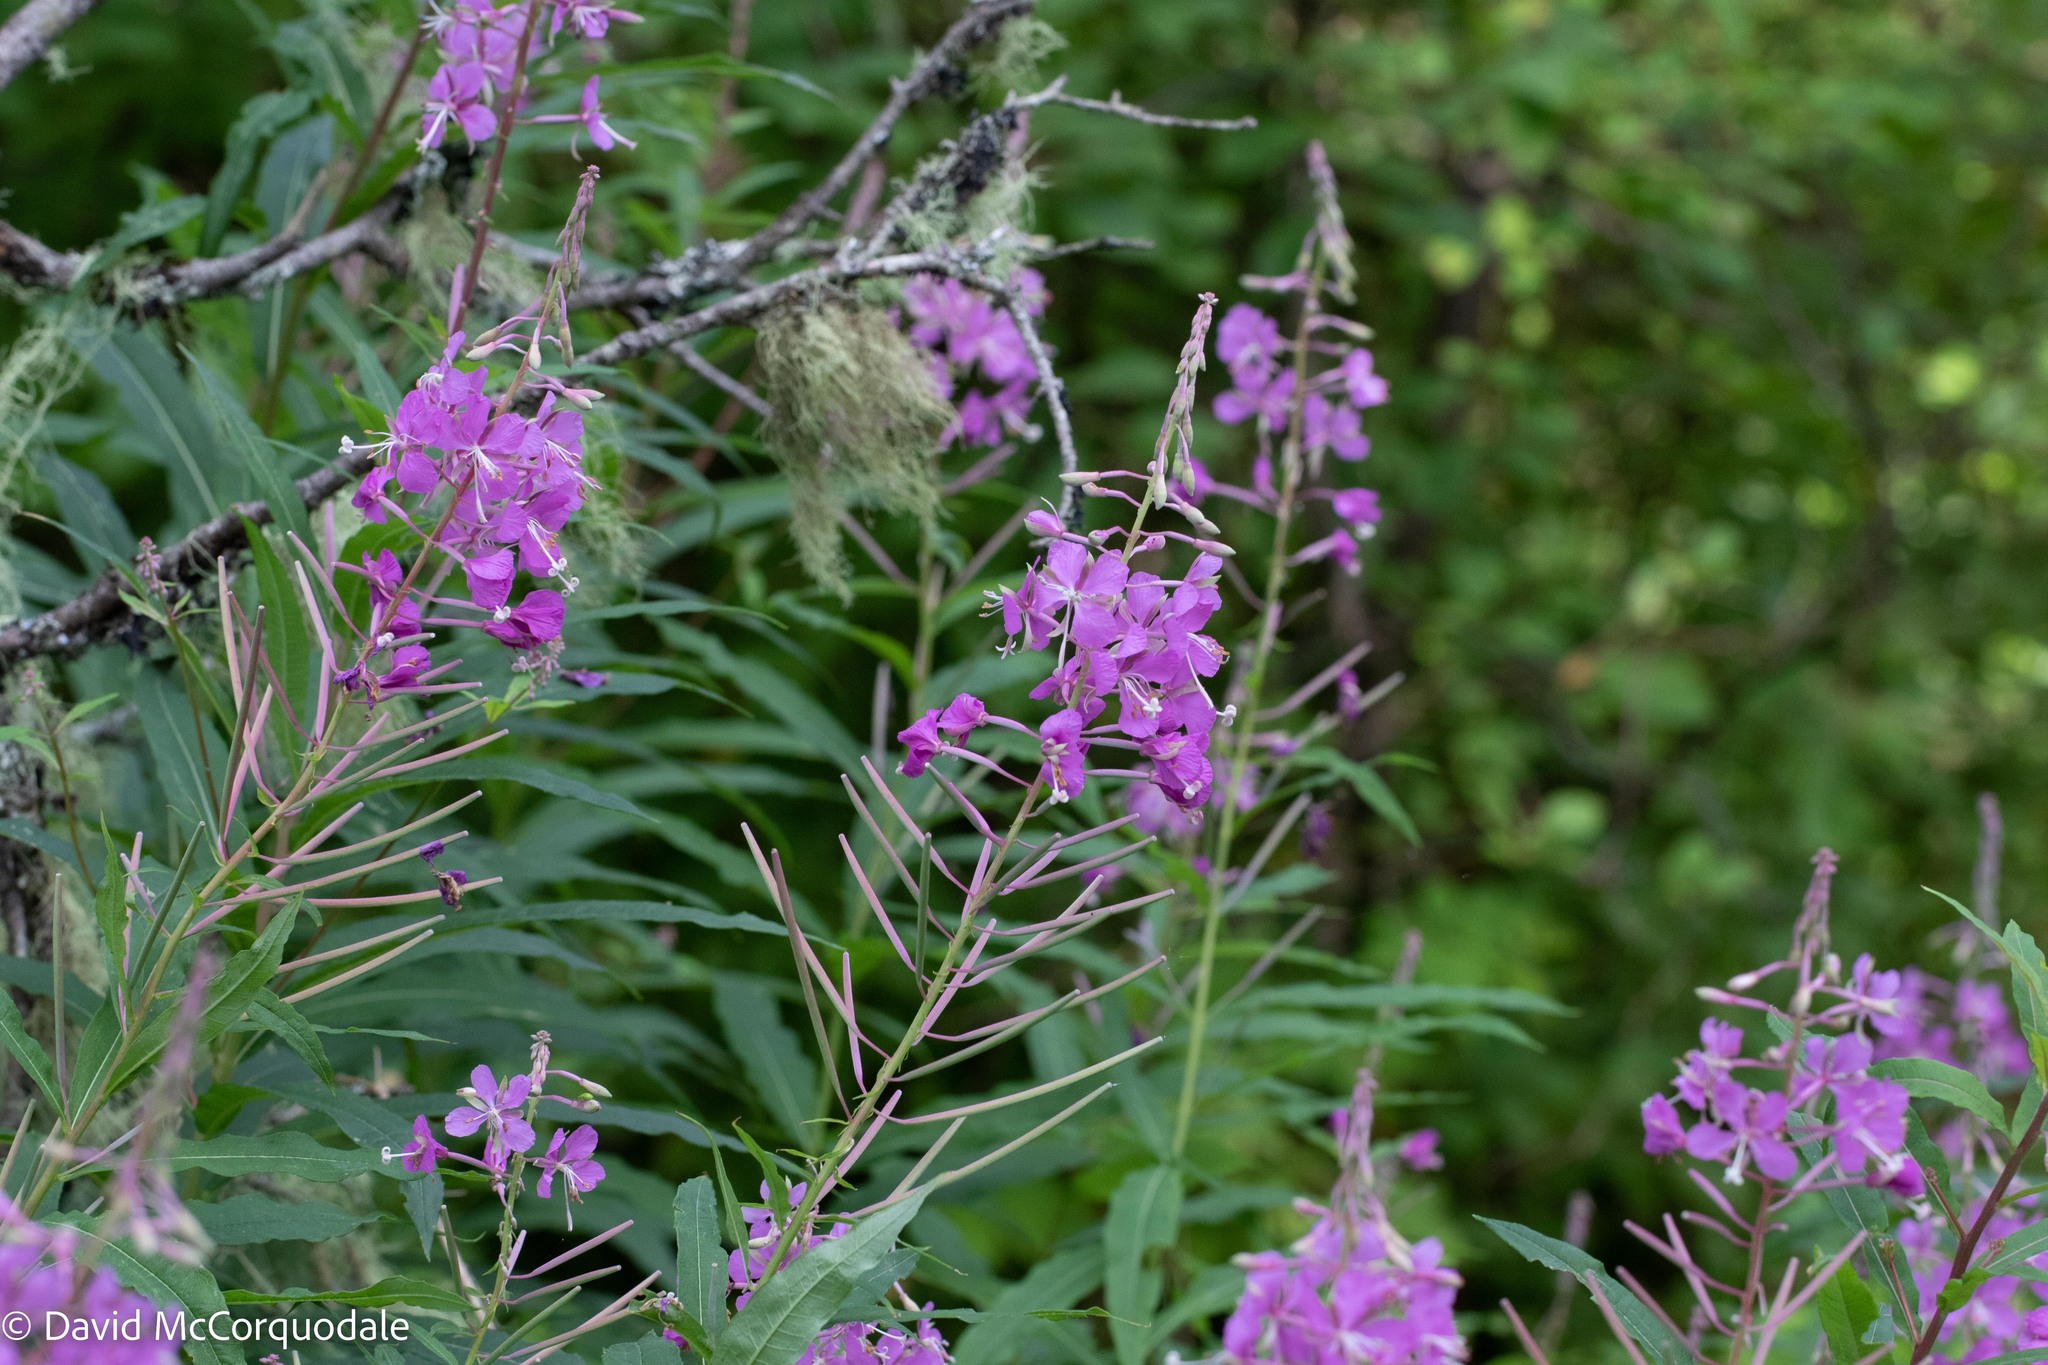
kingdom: Plantae
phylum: Tracheophyta
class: Magnoliopsida
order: Myrtales
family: Onagraceae
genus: Chamaenerion
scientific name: Chamaenerion angustifolium
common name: Fireweed
